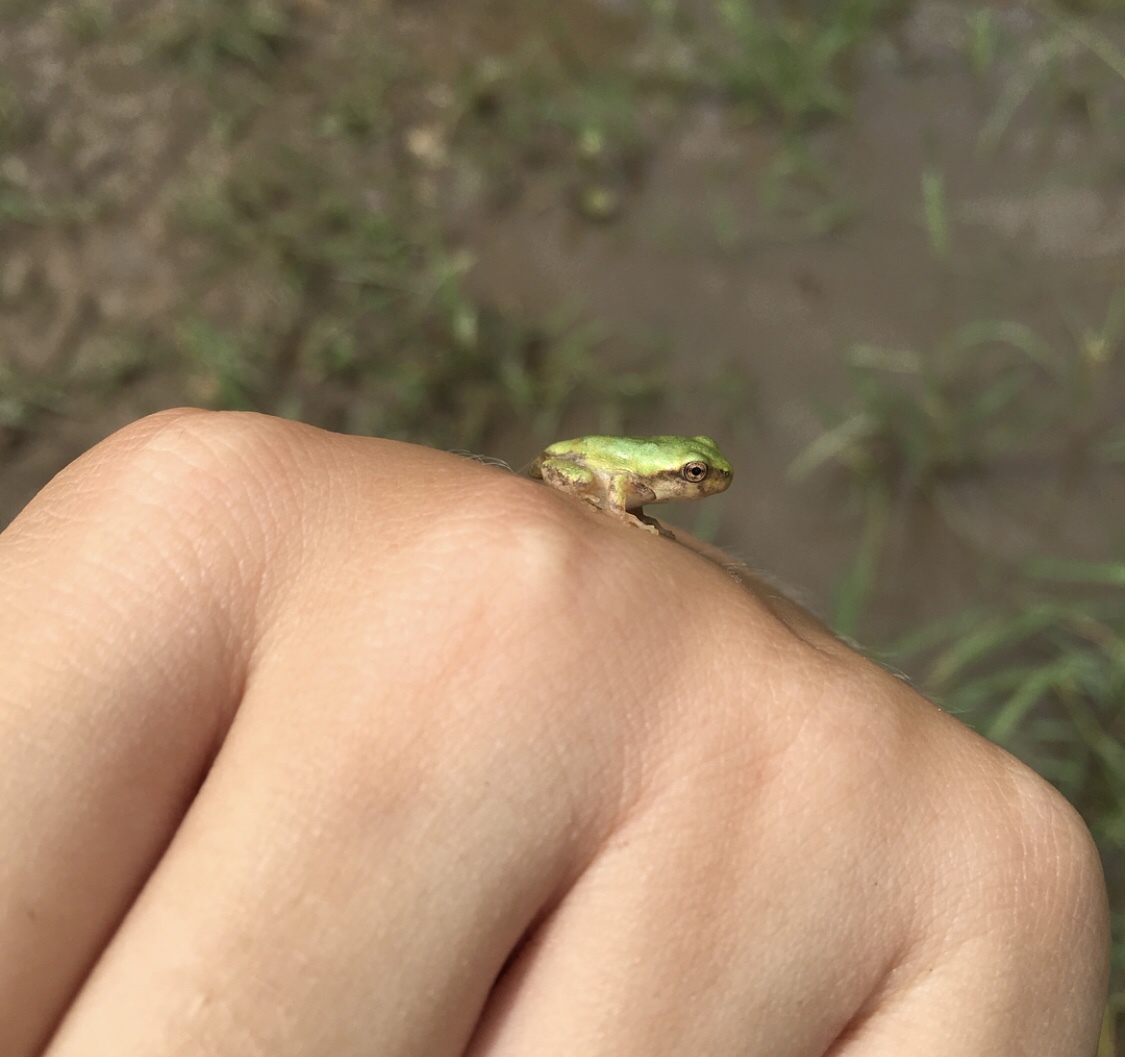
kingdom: Animalia
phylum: Chordata
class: Amphibia
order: Anura
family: Hylidae
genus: Dryophytes
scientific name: Dryophytes versicolor
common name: Gray treefrog
